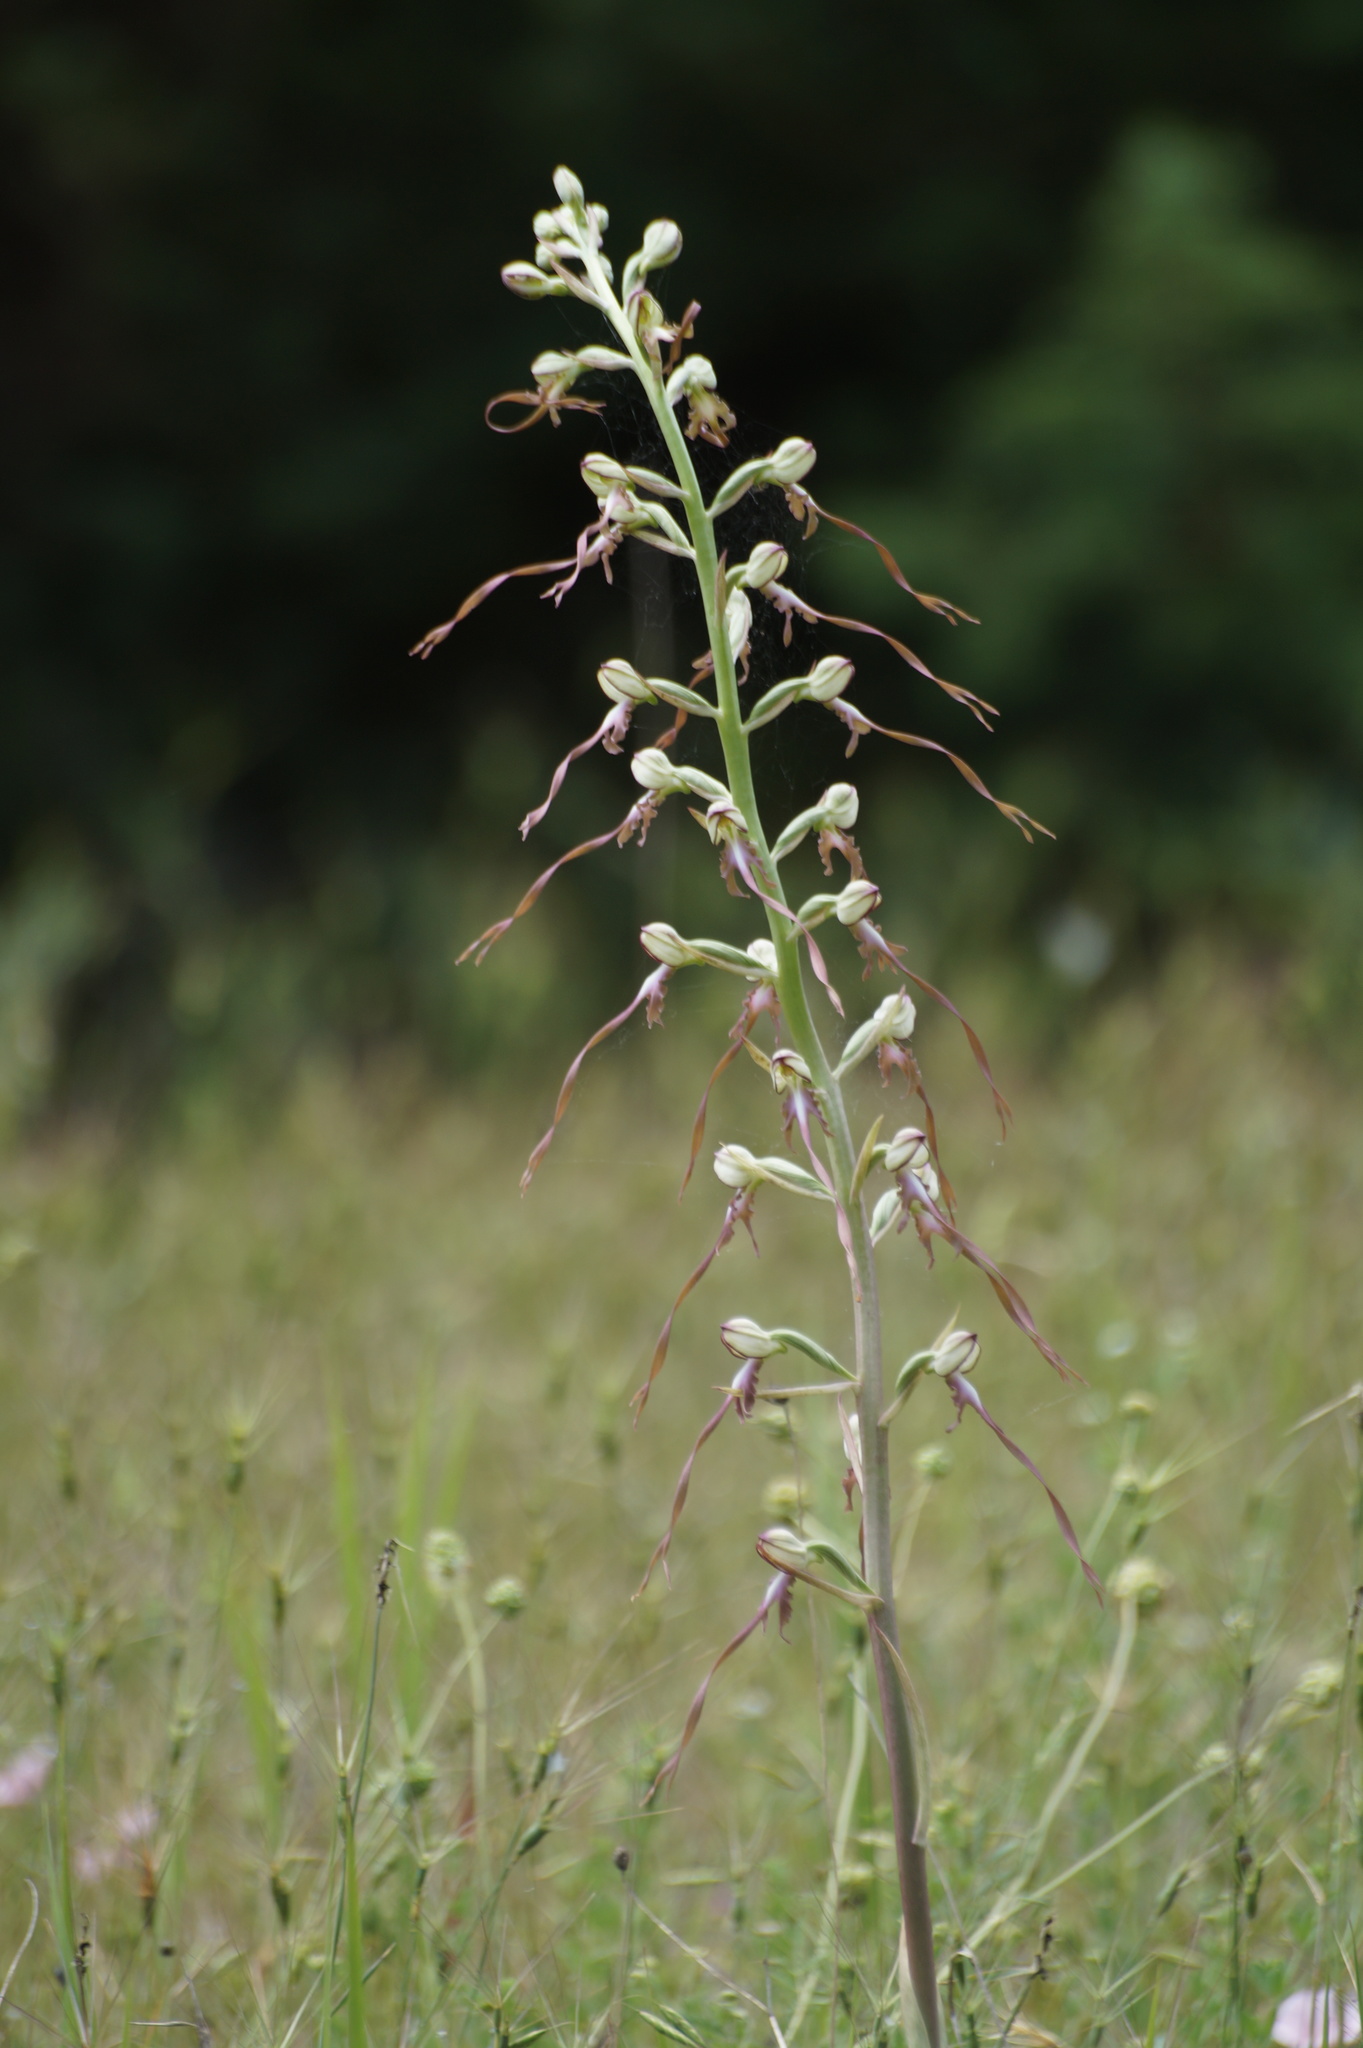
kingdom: Plantae
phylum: Tracheophyta
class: Liliopsida
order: Asparagales
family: Orchidaceae
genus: Himantoglossum
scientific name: Himantoglossum caprinum
